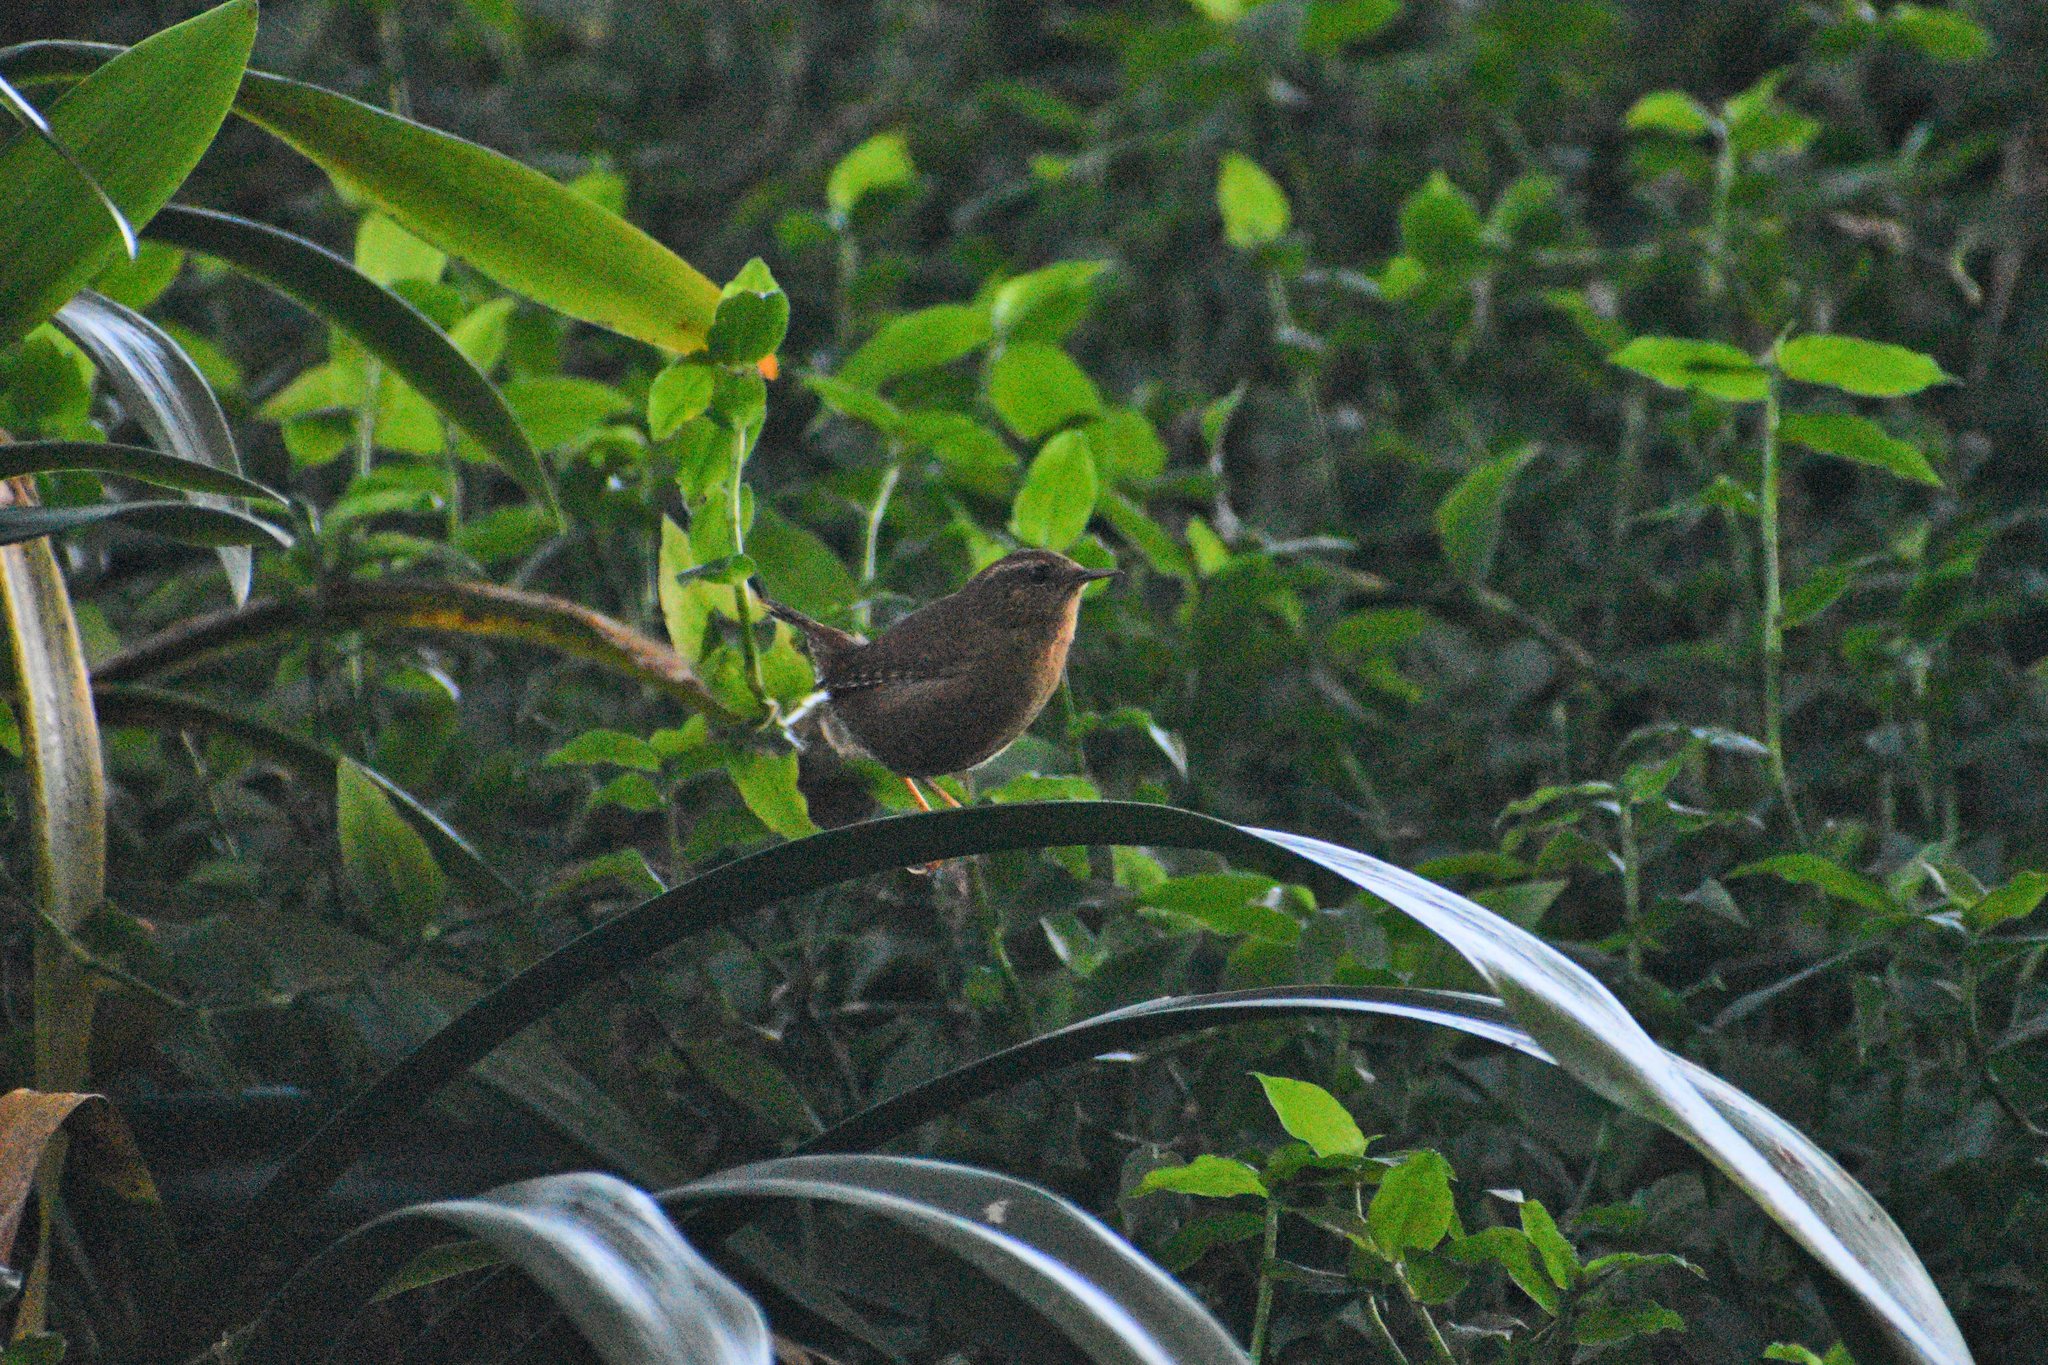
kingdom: Animalia
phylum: Chordata
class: Aves
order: Passeriformes
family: Troglodytidae
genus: Troglodytes
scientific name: Troglodytes pacificus
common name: Pacific wren
